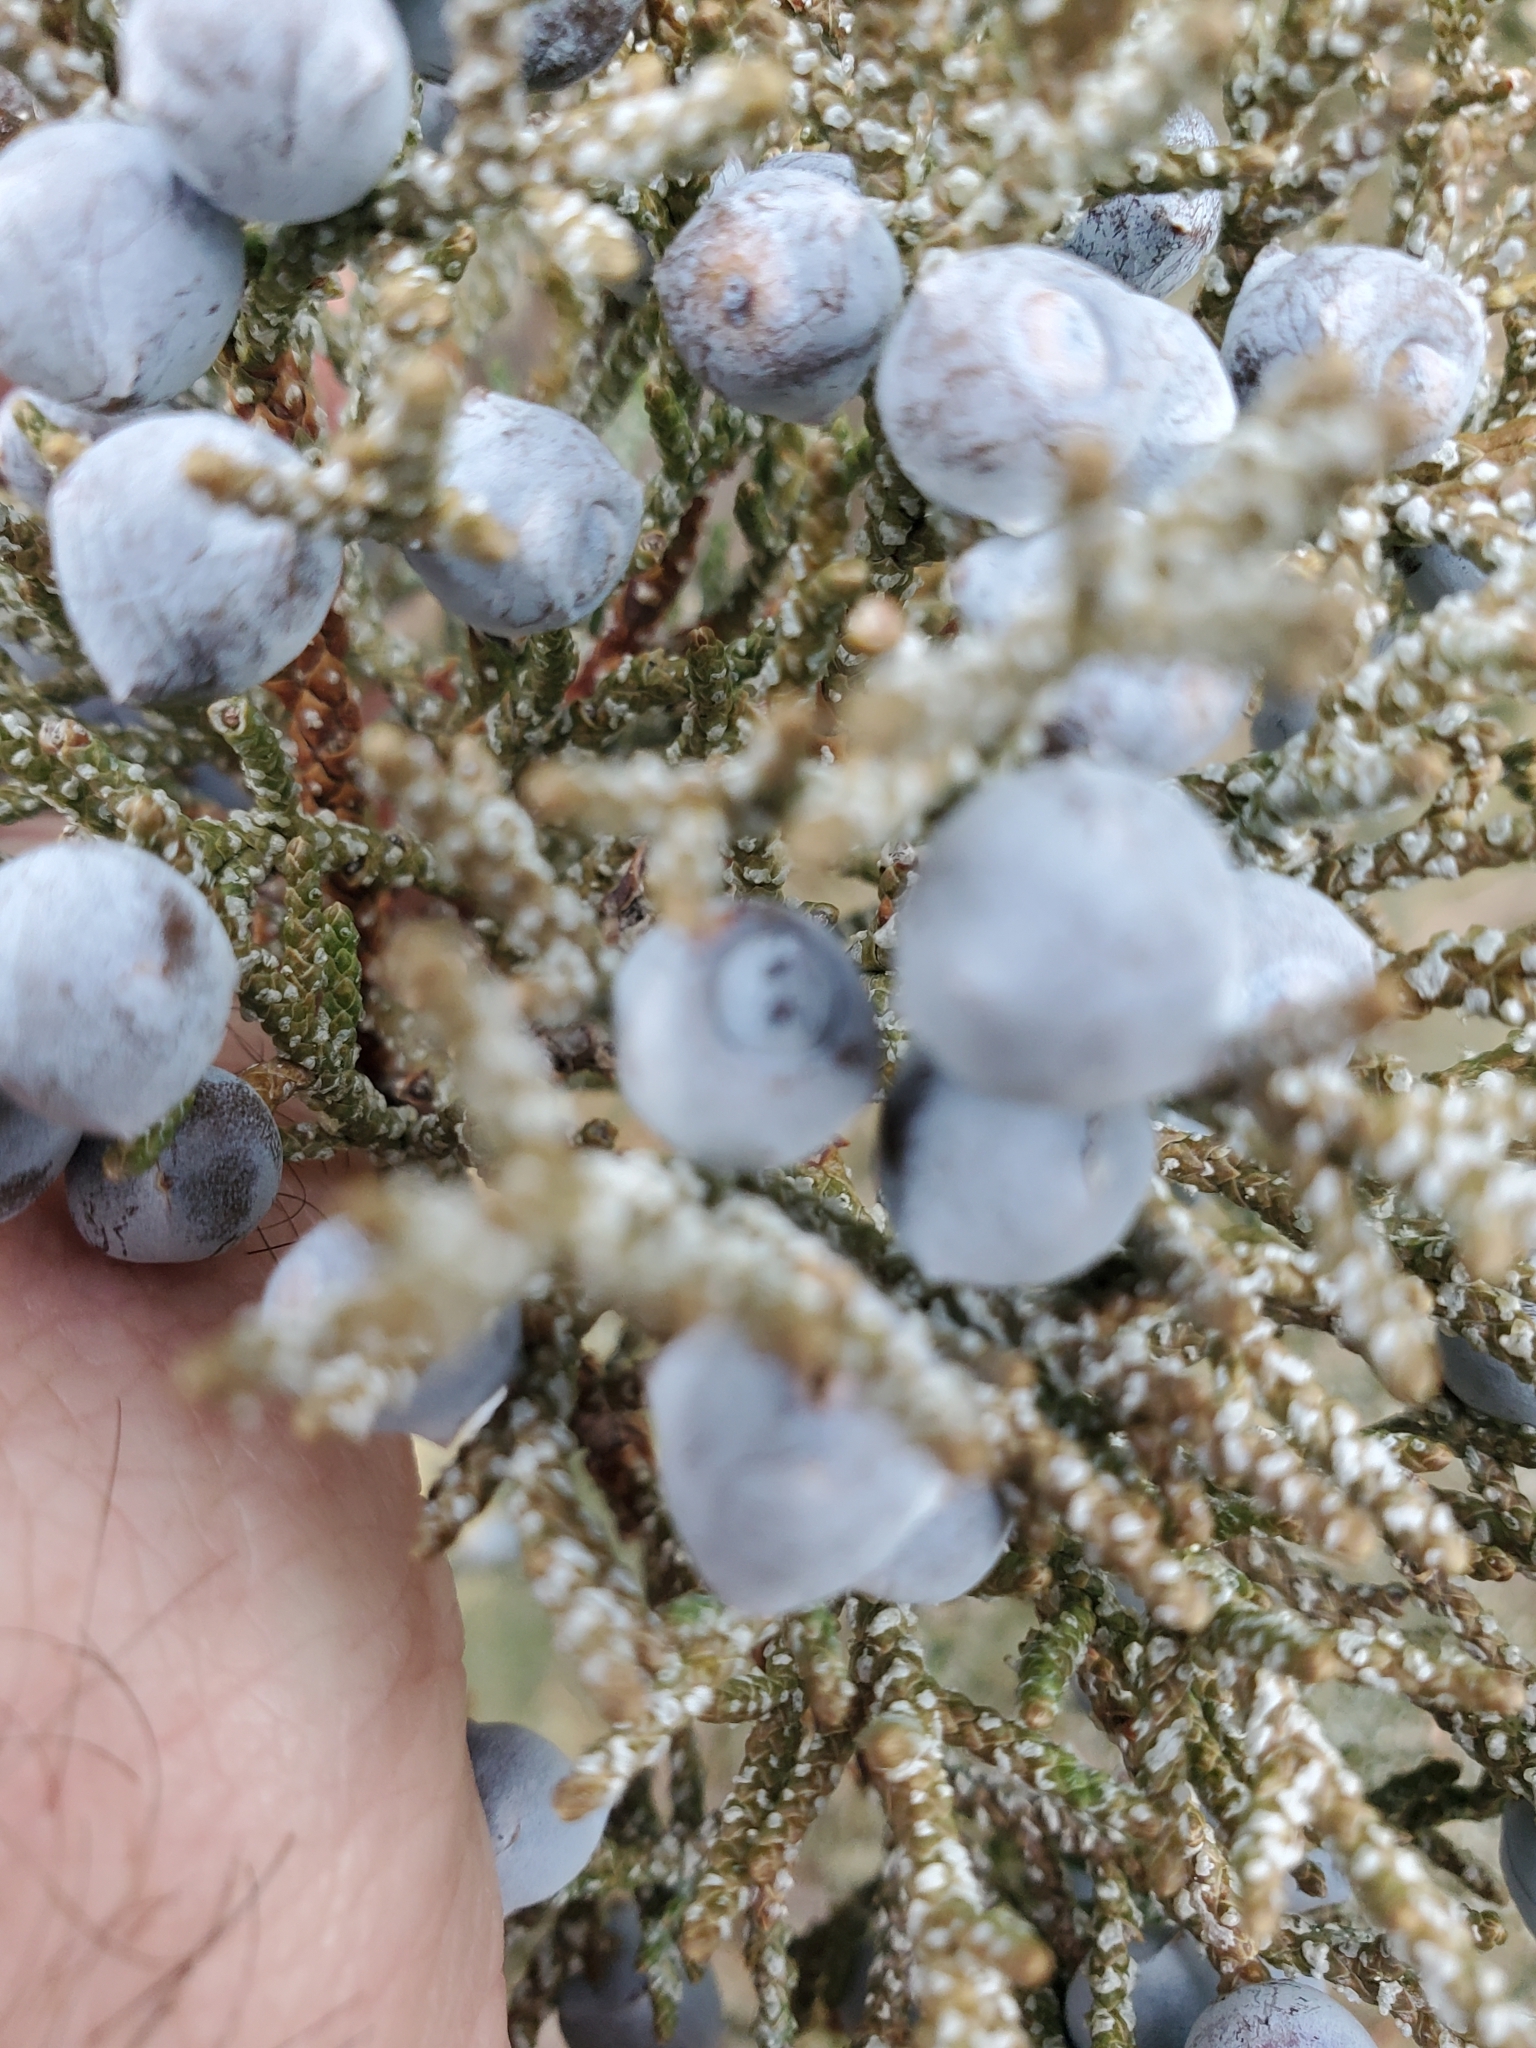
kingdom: Plantae
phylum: Tracheophyta
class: Pinopsida
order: Pinales
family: Cupressaceae
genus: Juniperus
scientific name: Juniperus occidentalis
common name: Western juniper
